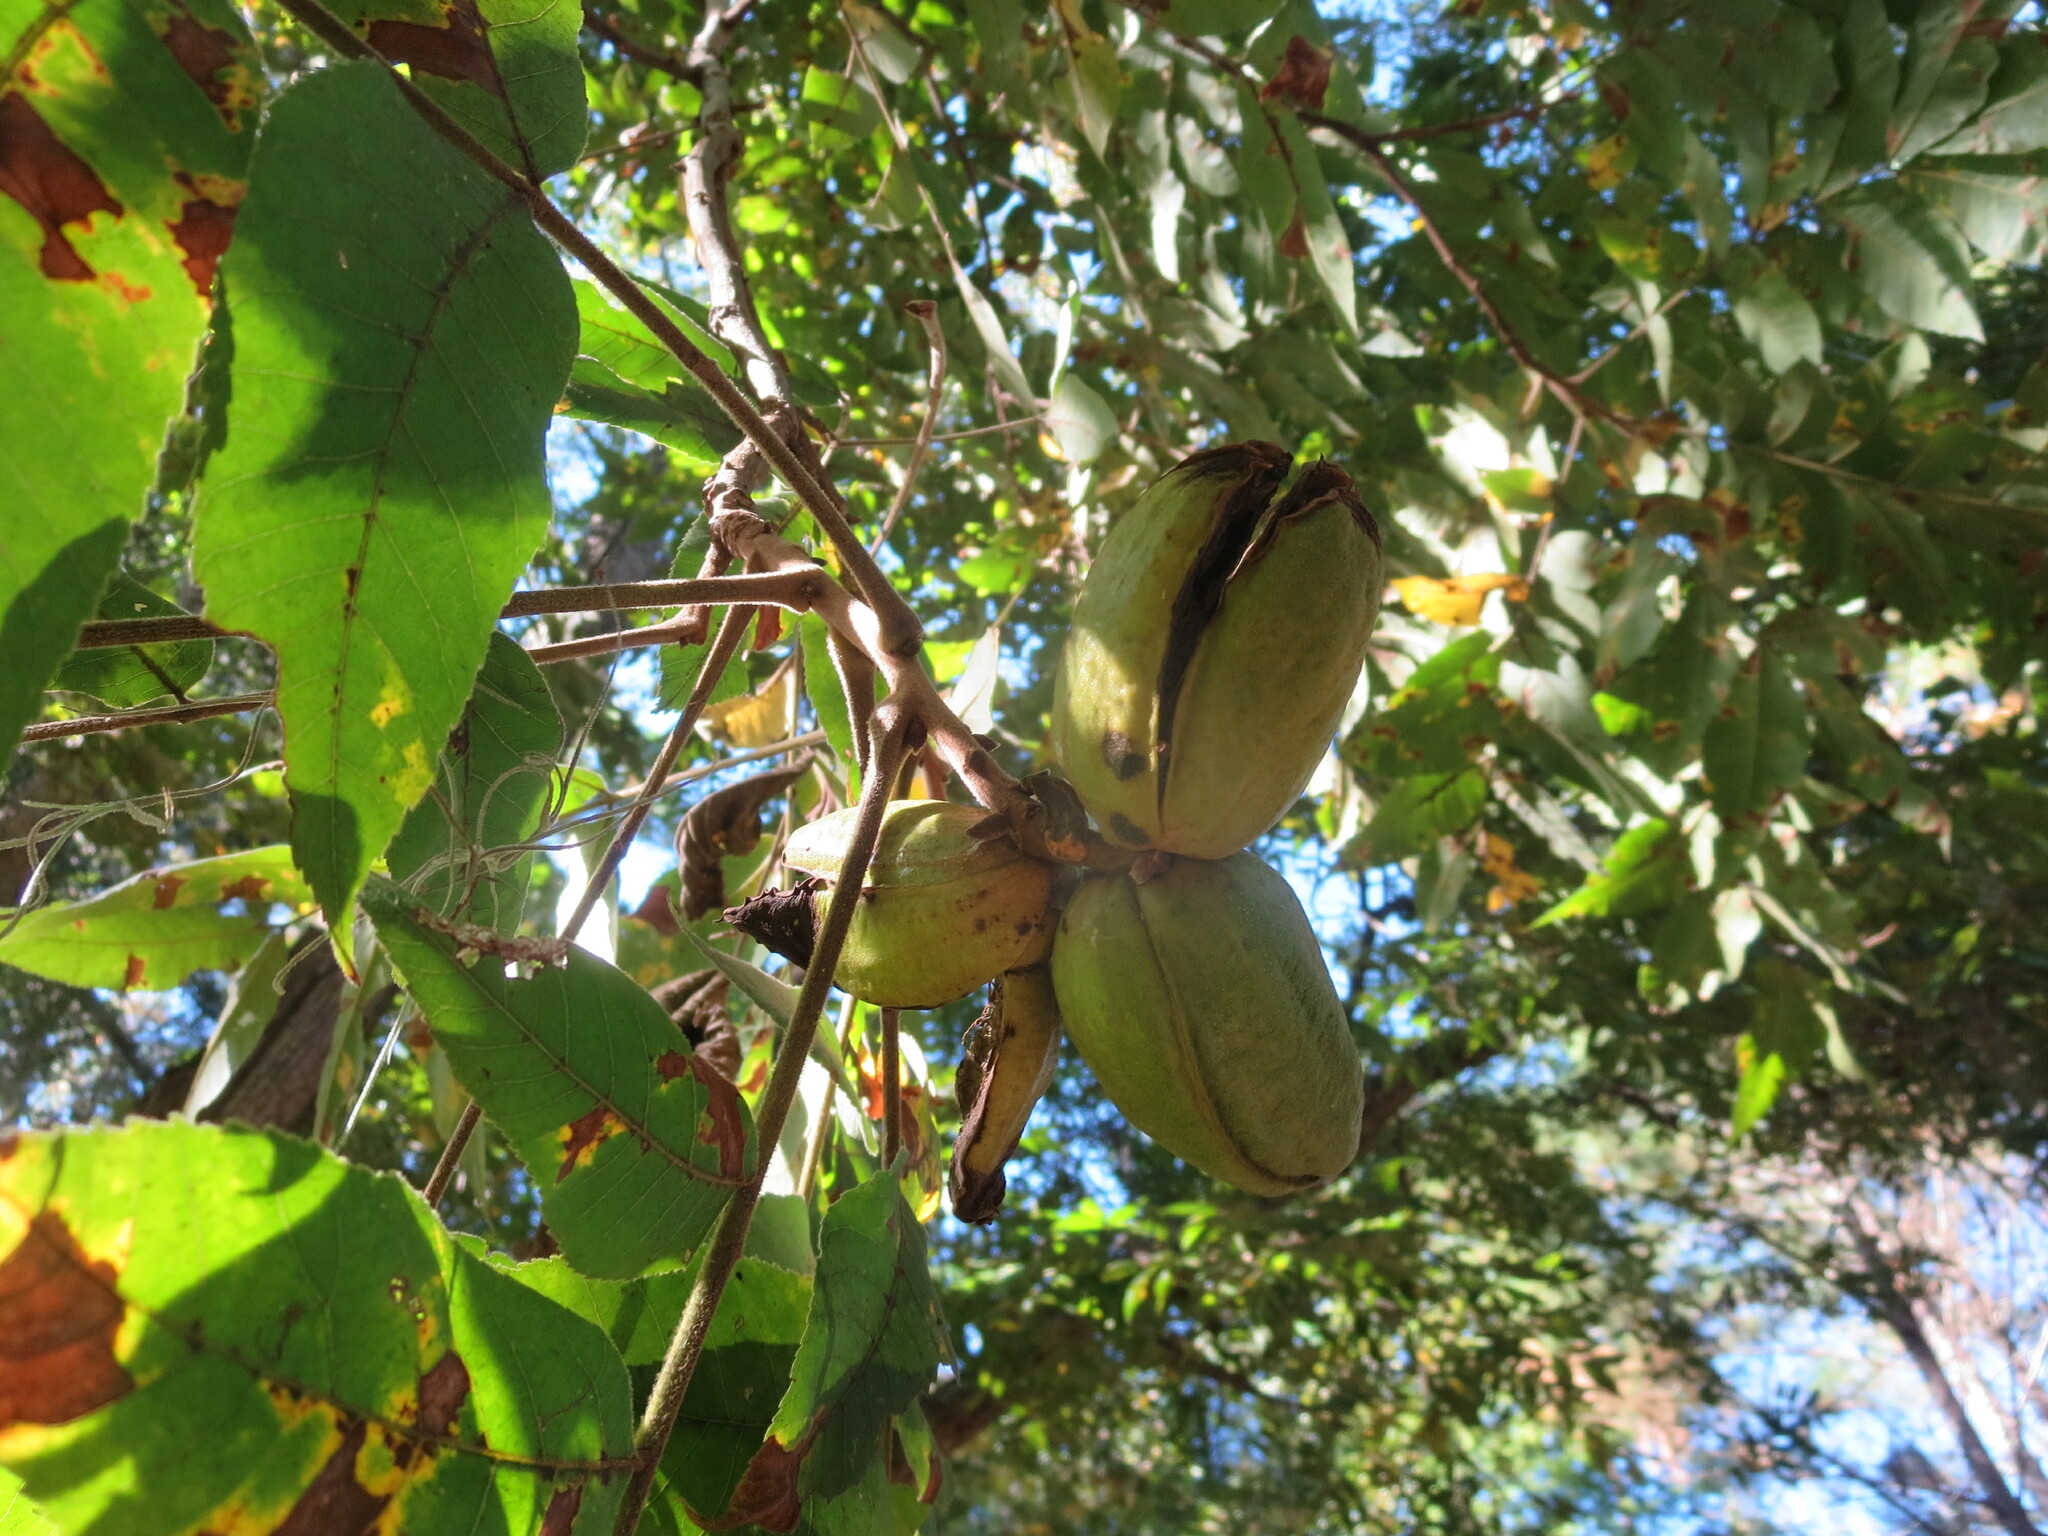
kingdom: Plantae
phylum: Tracheophyta
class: Magnoliopsida
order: Fagales
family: Juglandaceae
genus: Carya
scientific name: Carya illinoinensis
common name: Pecan
